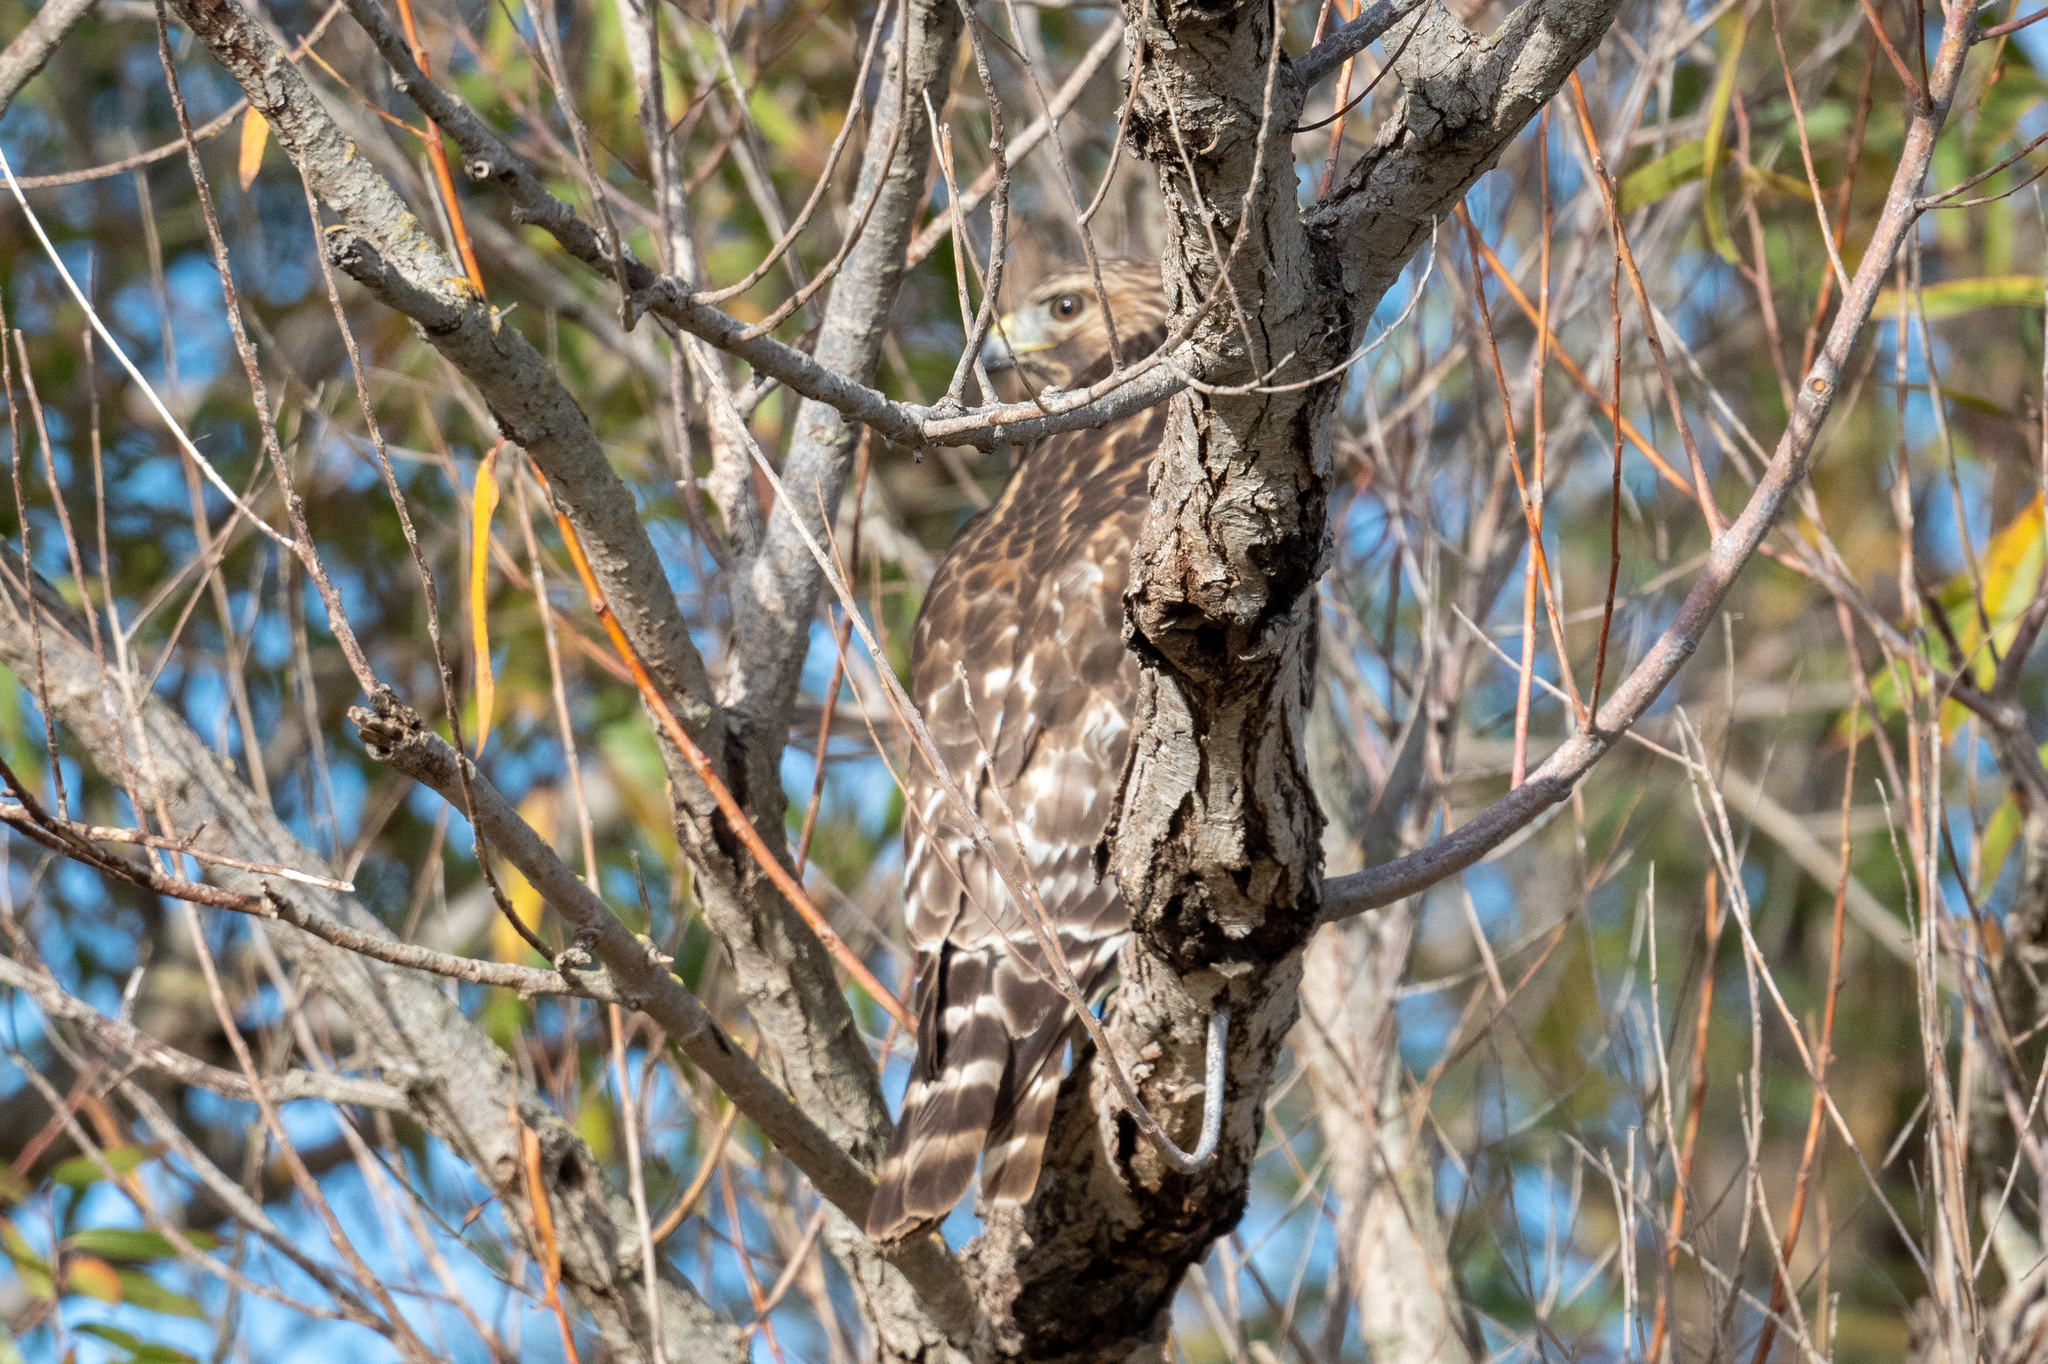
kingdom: Animalia
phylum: Chordata
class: Aves
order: Accipitriformes
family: Accipitridae
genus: Buteo
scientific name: Buteo lineatus
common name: Red-shouldered hawk
